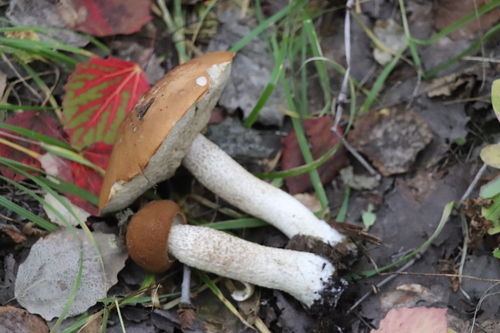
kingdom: Fungi
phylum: Basidiomycota
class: Agaricomycetes
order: Boletales
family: Boletaceae
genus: Leccinum
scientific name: Leccinum albostipitatum
